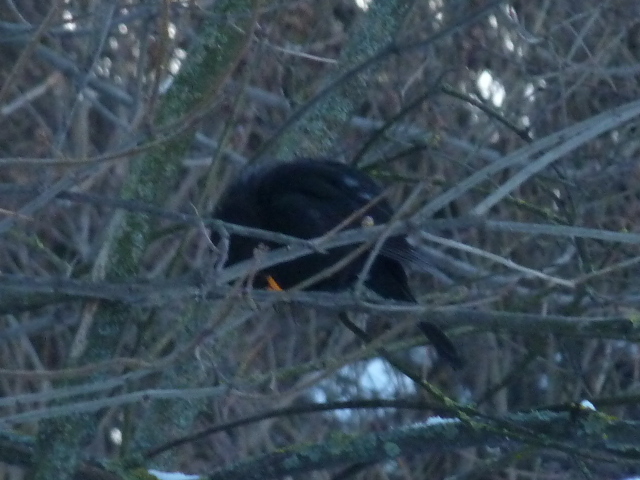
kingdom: Animalia
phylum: Chordata
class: Aves
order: Passeriformes
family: Turdidae
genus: Turdus
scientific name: Turdus merula
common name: Common blackbird
